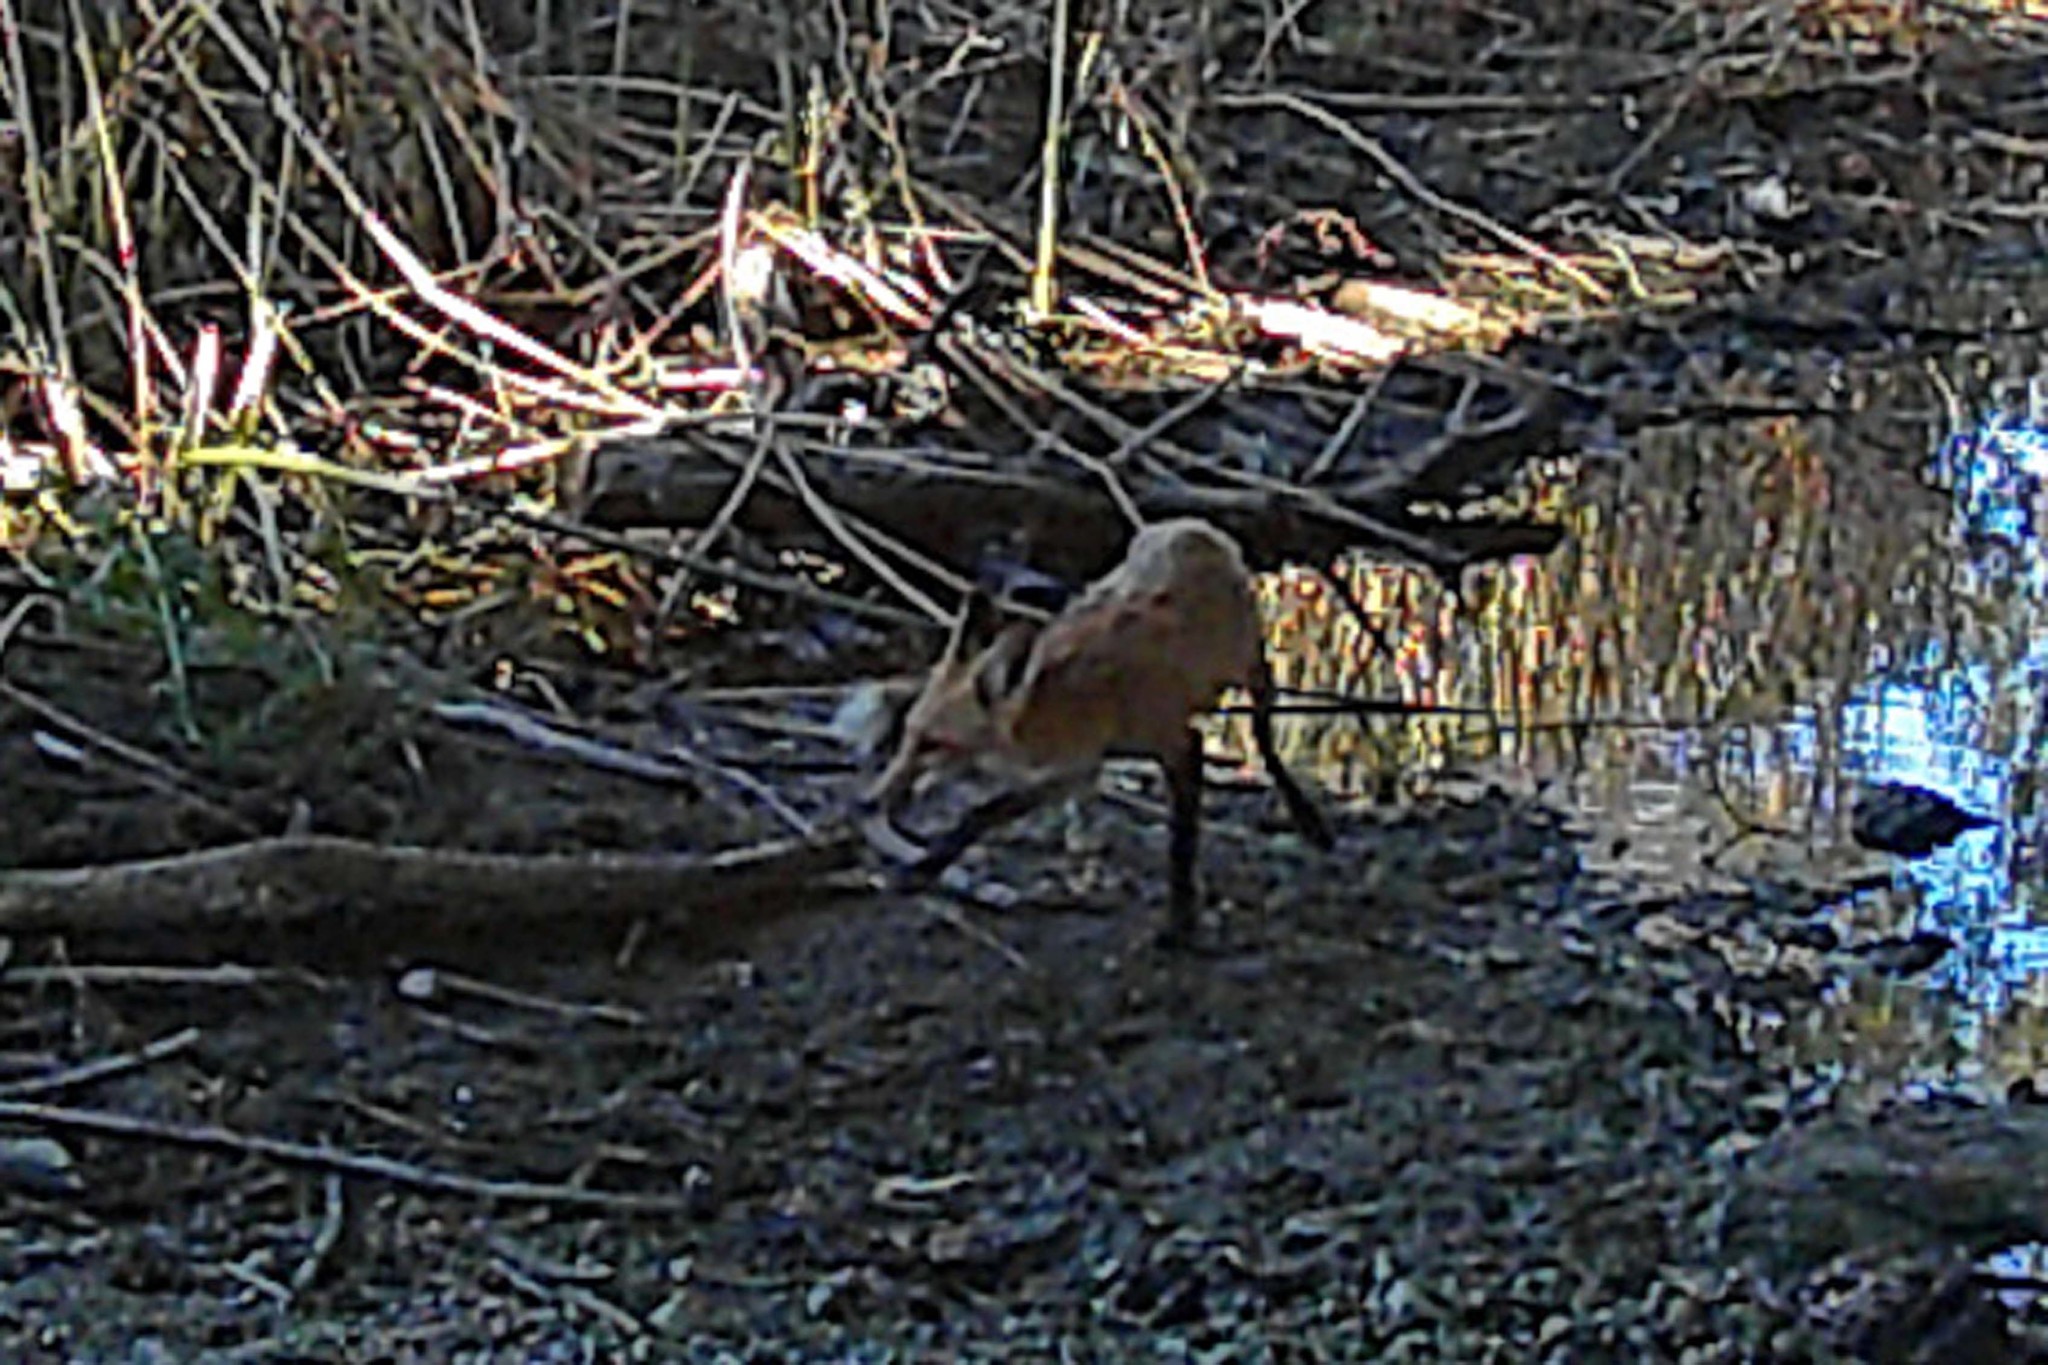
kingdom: Animalia
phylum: Chordata
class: Mammalia
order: Carnivora
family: Canidae
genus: Vulpes
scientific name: Vulpes vulpes
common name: Red fox
